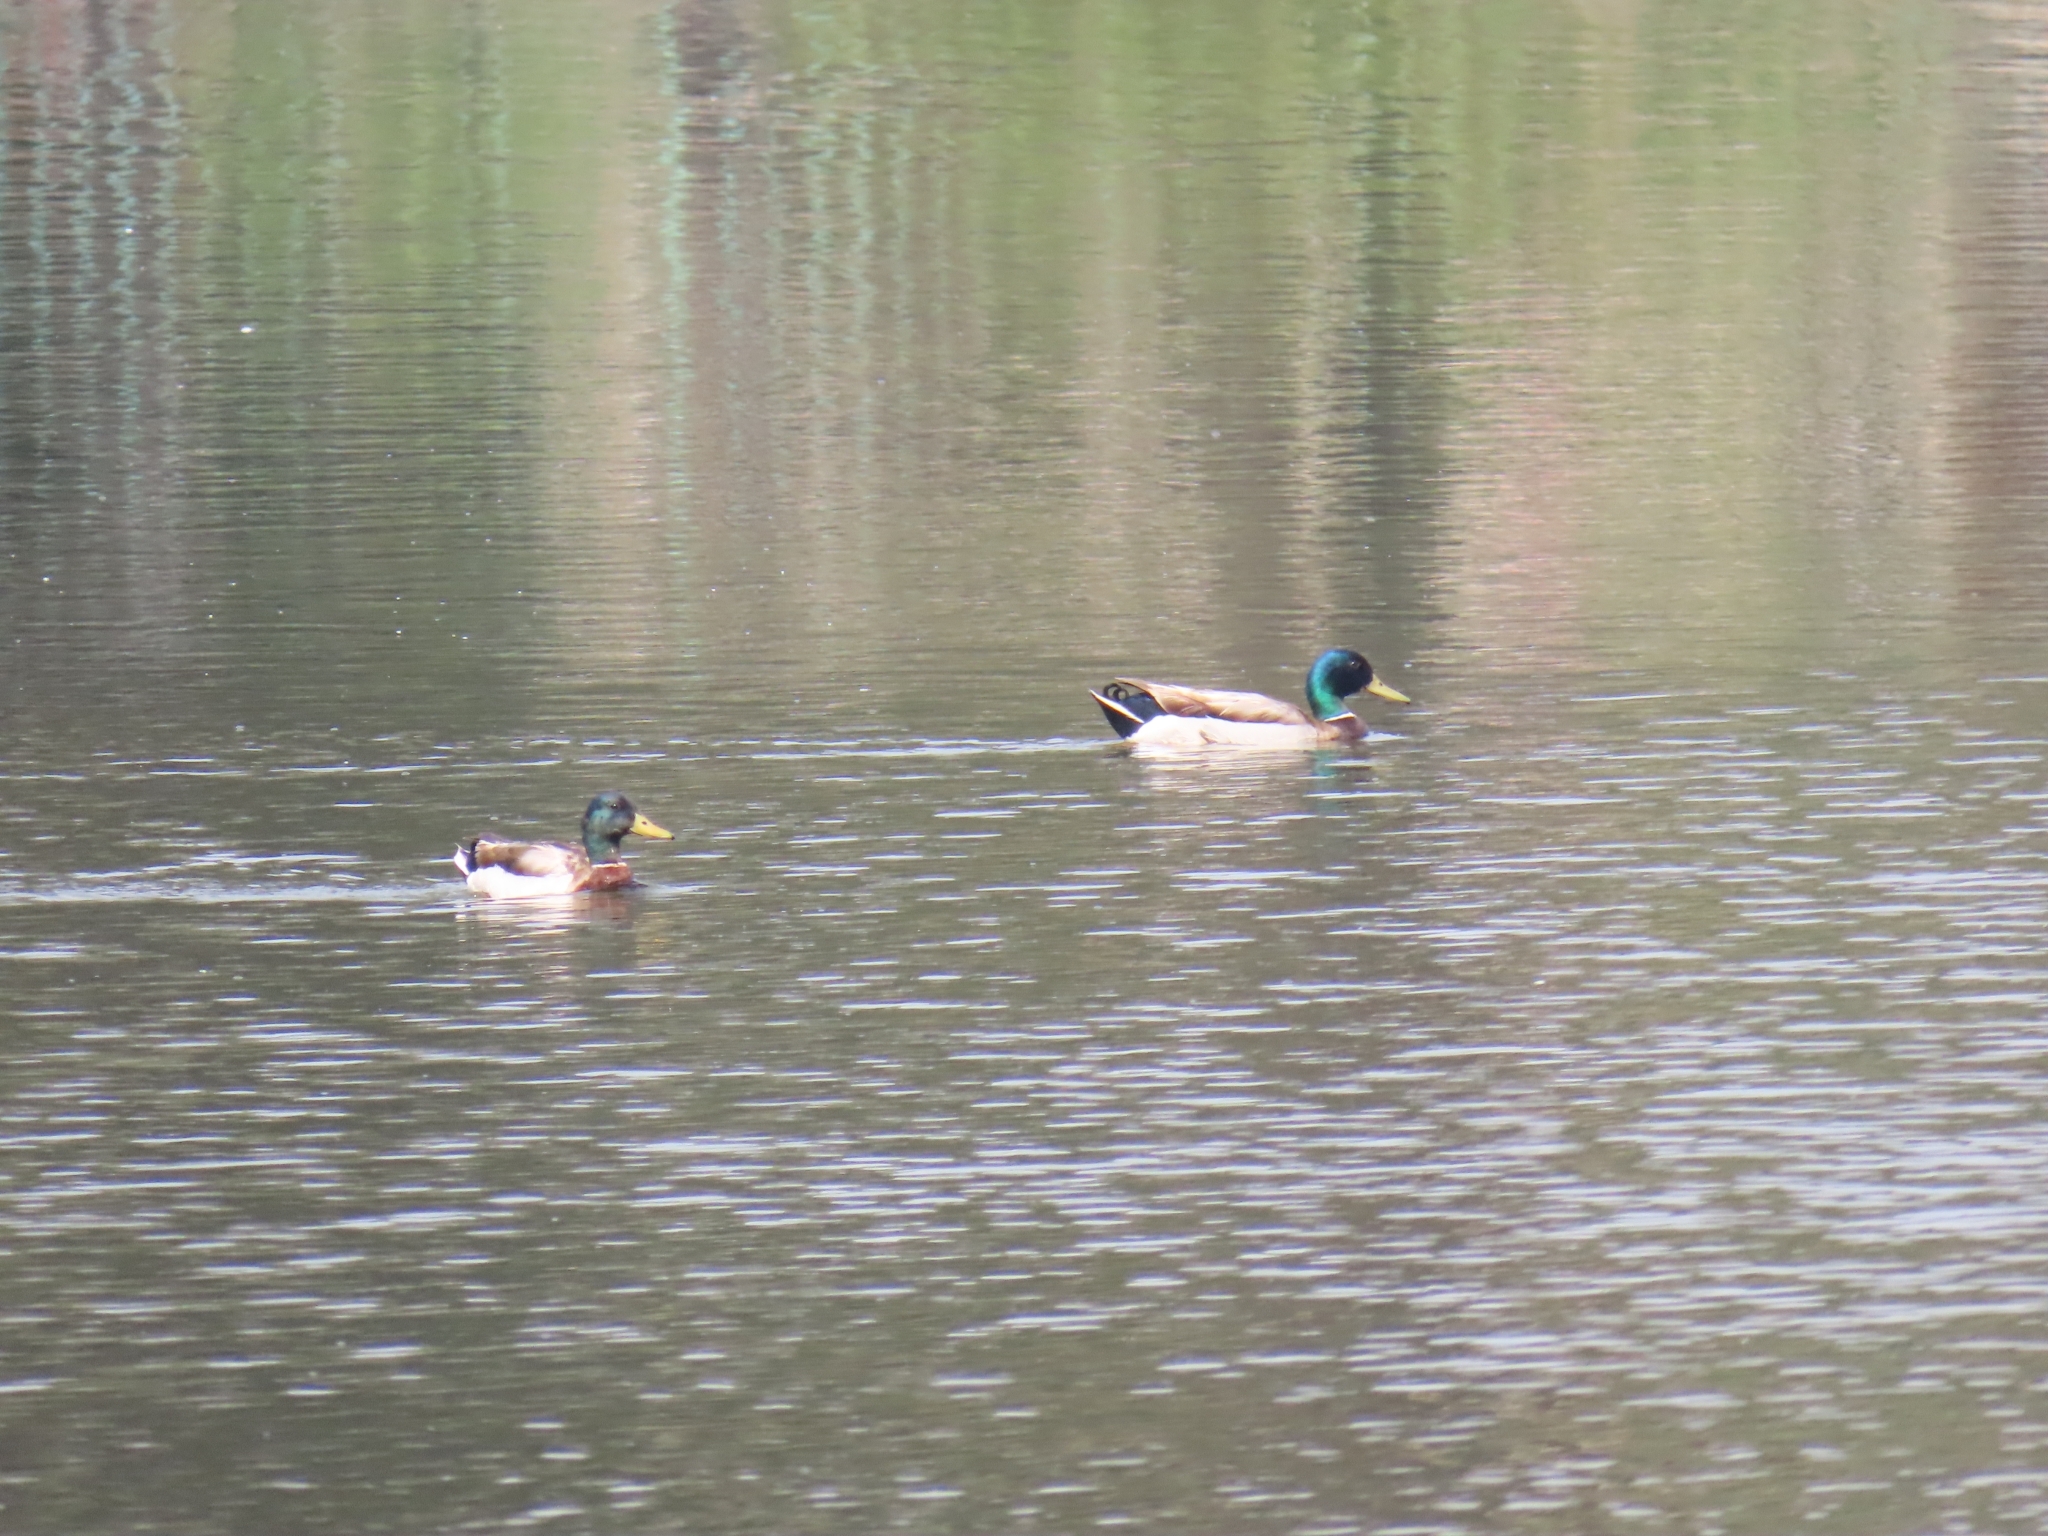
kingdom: Animalia
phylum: Chordata
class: Aves
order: Anseriformes
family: Anatidae
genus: Anas
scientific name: Anas platyrhynchos
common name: Mallard
